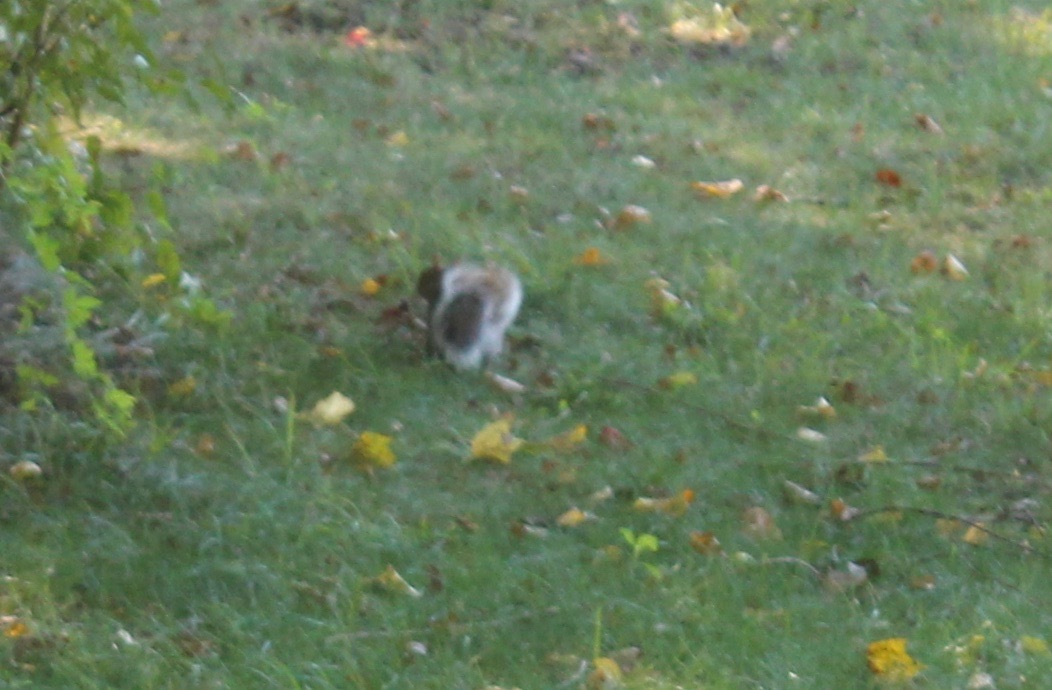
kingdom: Animalia
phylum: Chordata
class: Mammalia
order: Rodentia
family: Sciuridae
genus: Sciurus
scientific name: Sciurus carolinensis
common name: Eastern gray squirrel
